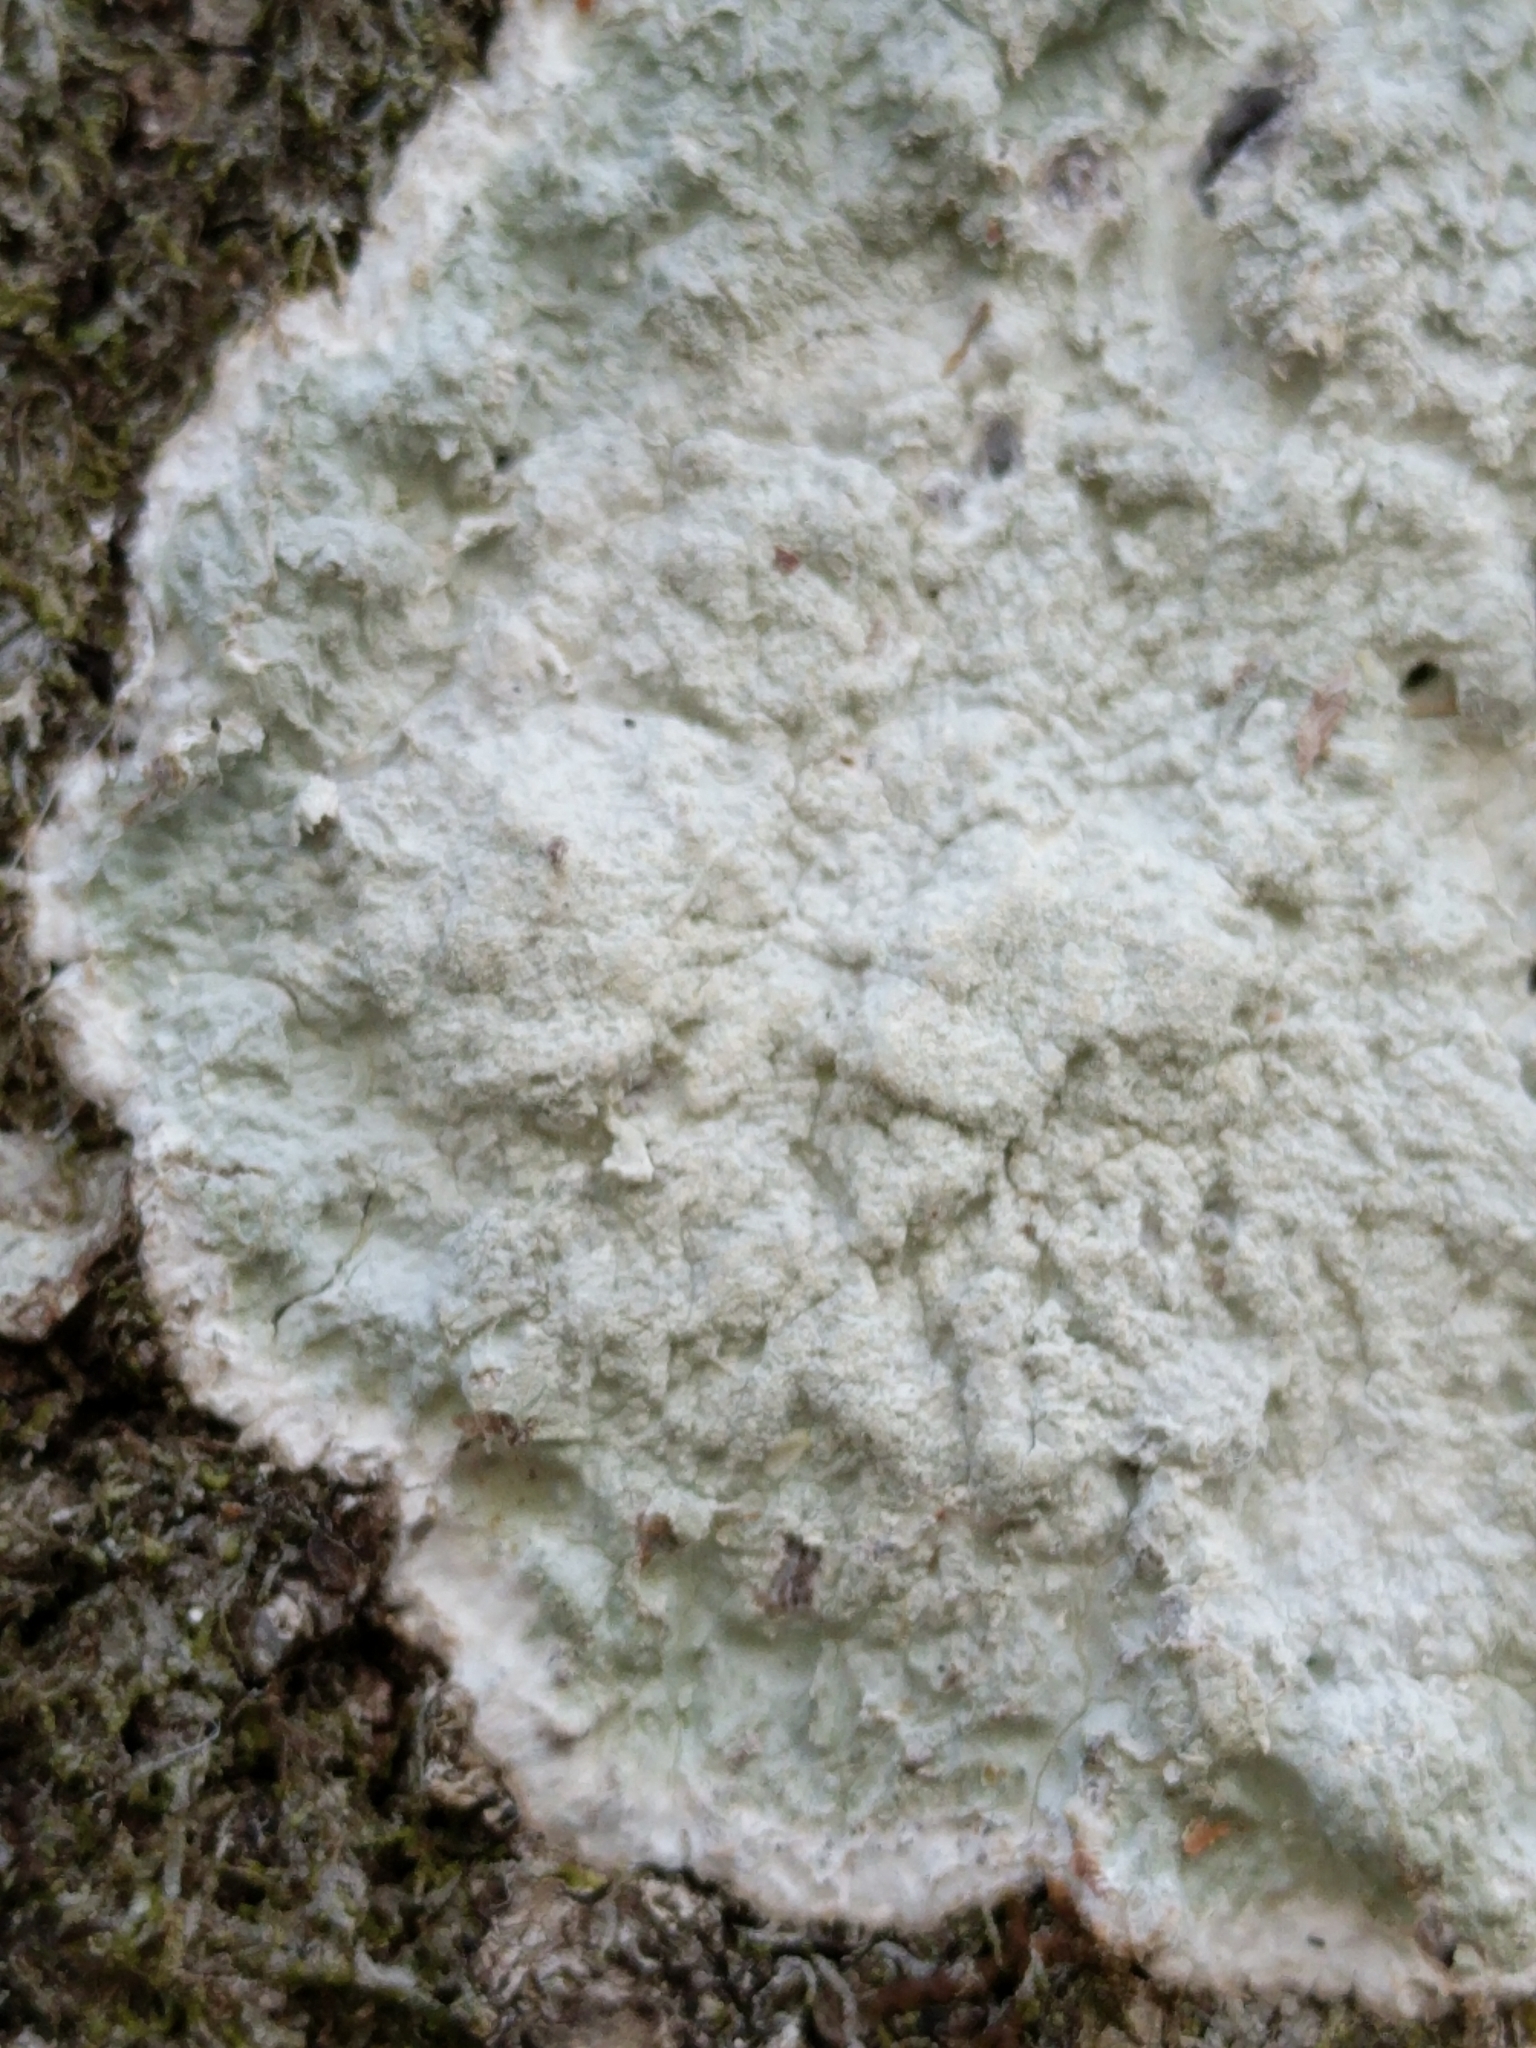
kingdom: Fungi
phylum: Ascomycota
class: Arthoniomycetes
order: Arthoniales
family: Arthoniaceae
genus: Cryptothecia
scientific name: Cryptothecia striata
